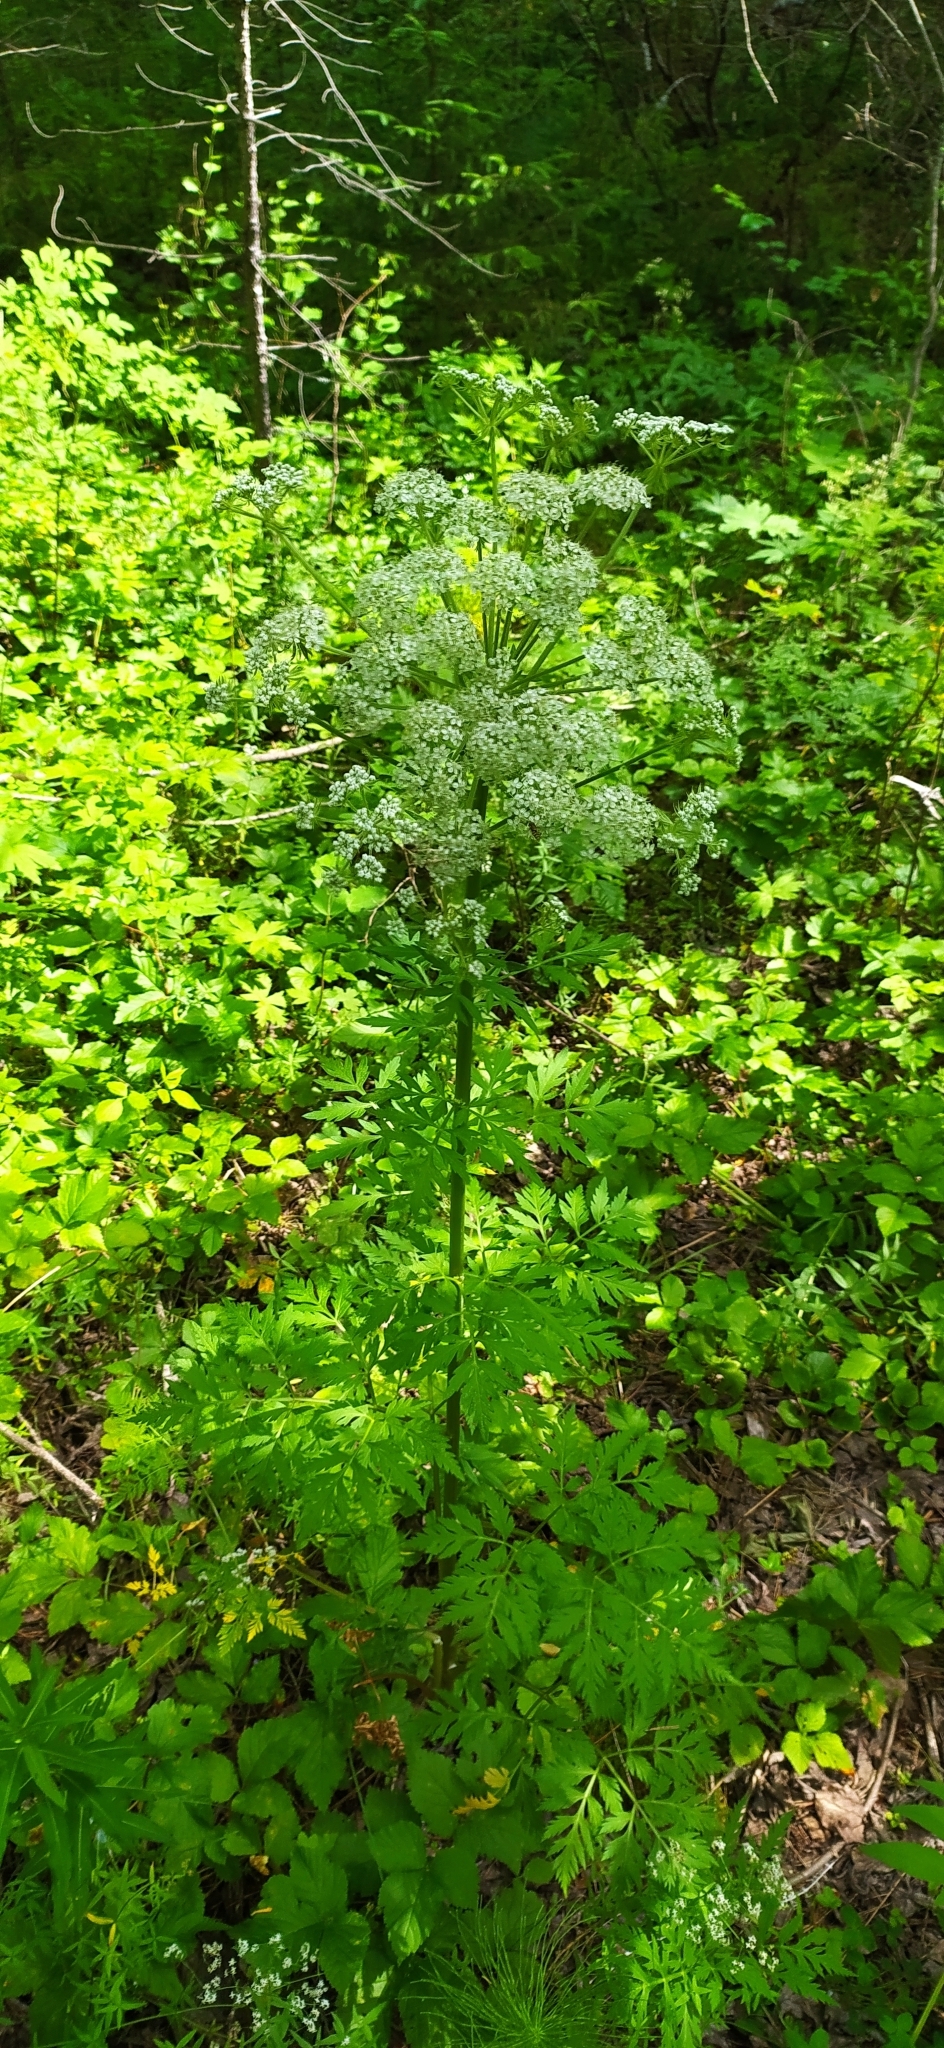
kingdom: Plantae
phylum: Tracheophyta
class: Magnoliopsida
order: Apiales
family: Apiaceae
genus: Pleurospermum
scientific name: Pleurospermum uralense
